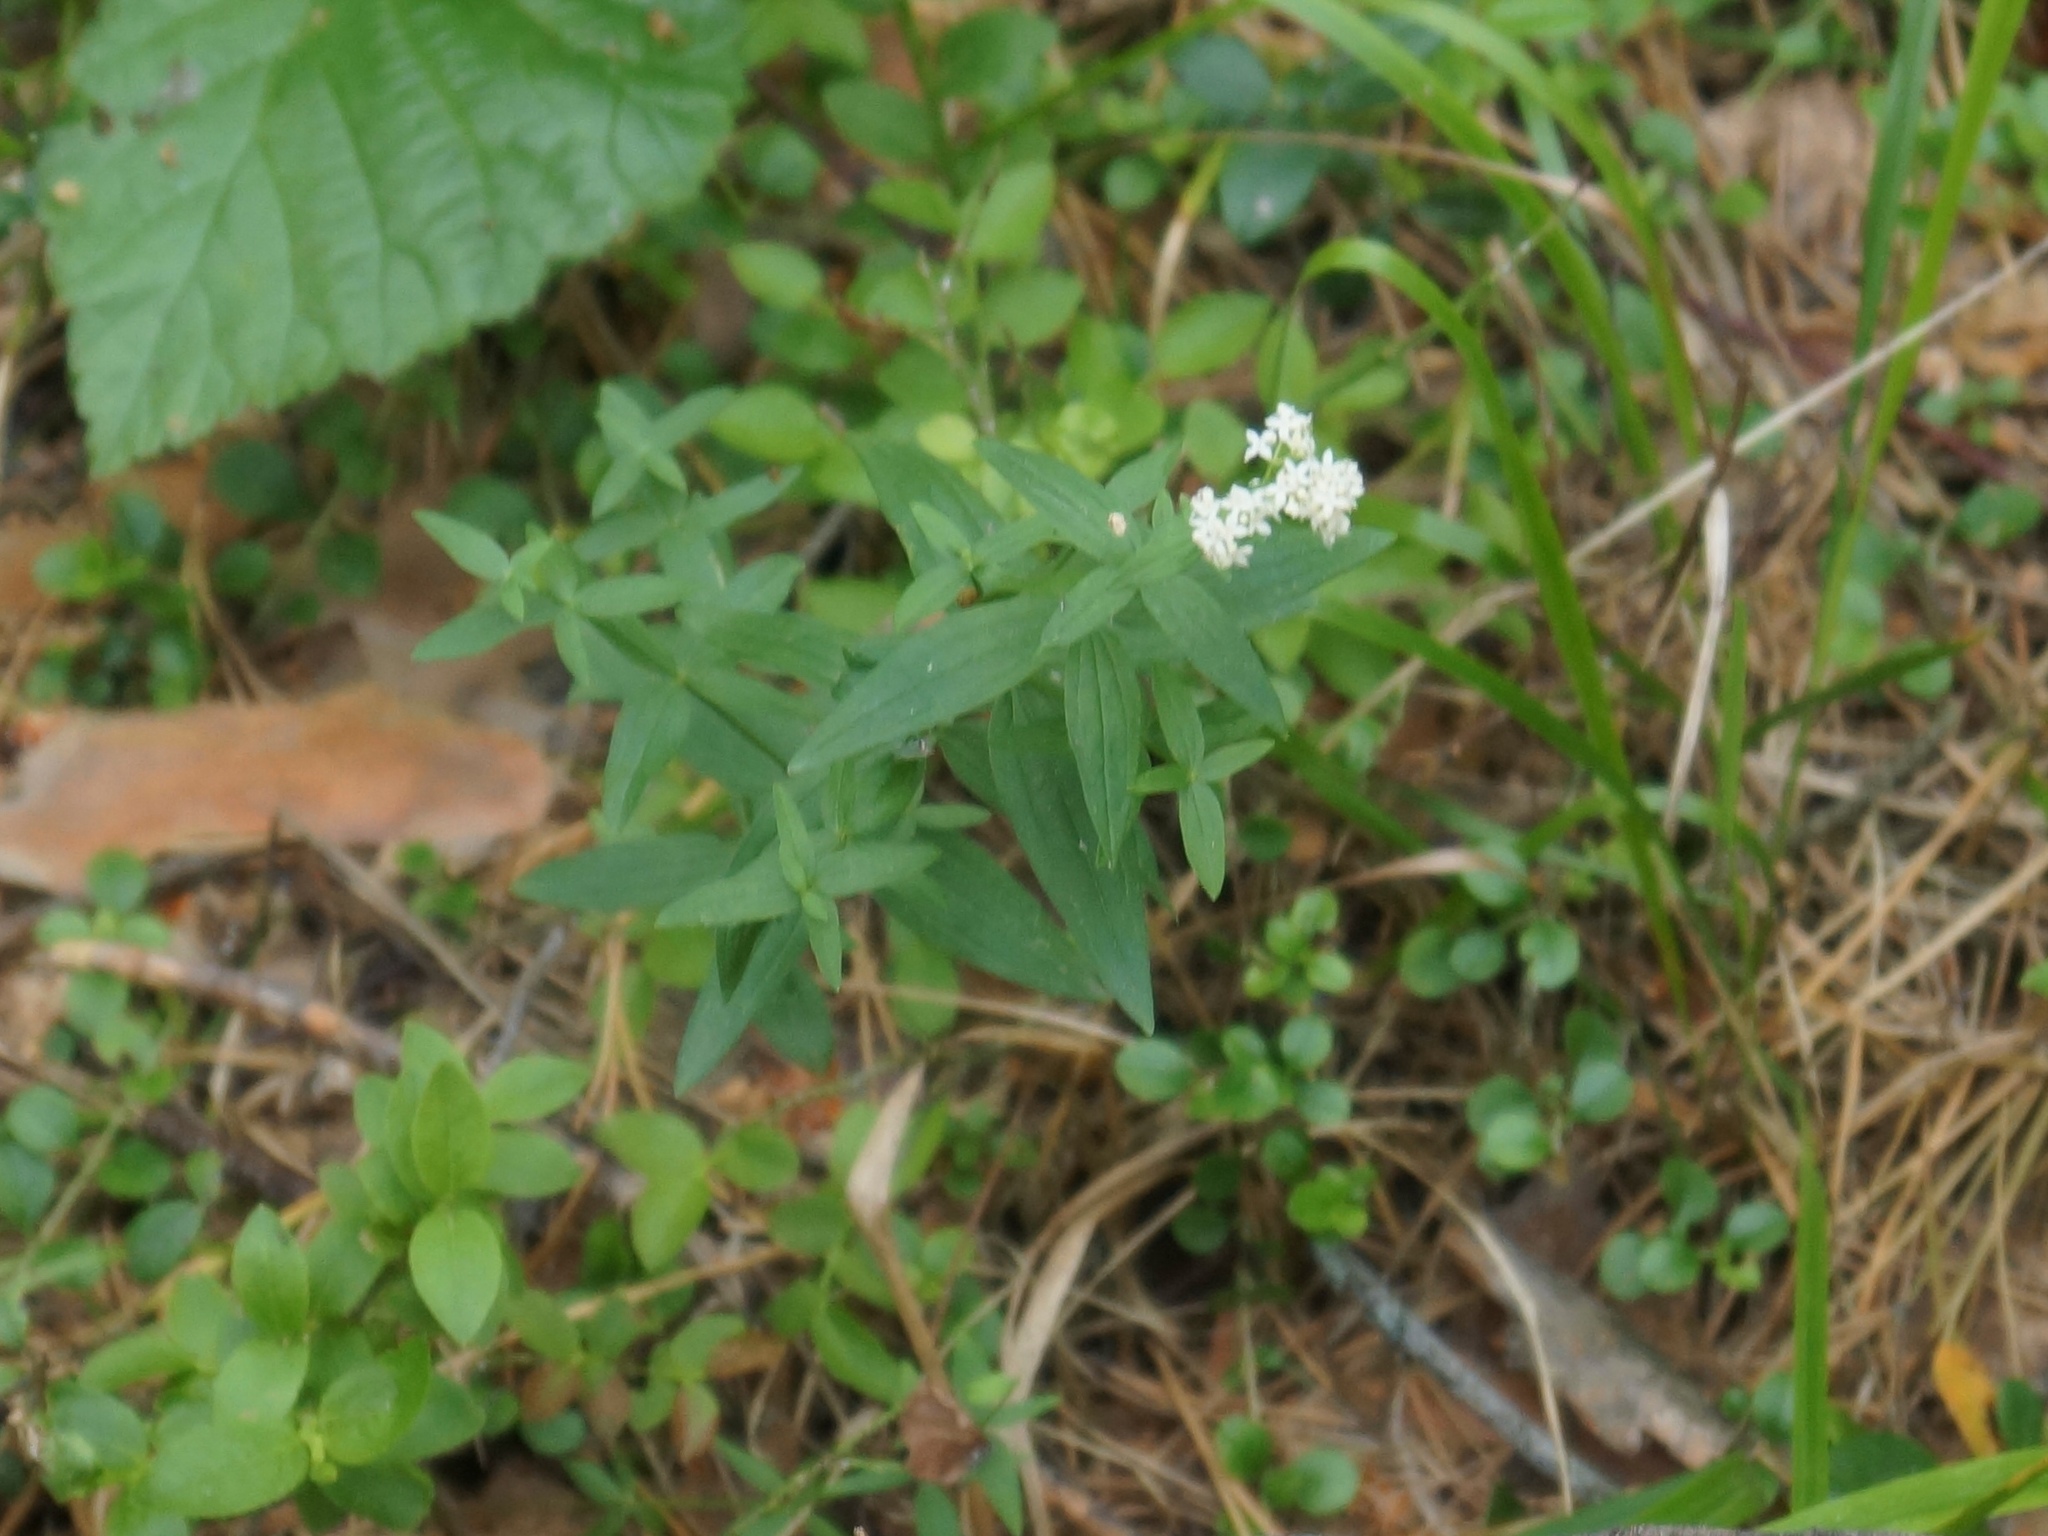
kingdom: Plantae
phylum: Tracheophyta
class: Magnoliopsida
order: Gentianales
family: Rubiaceae
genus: Galium
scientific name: Galium boreale
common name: Northern bedstraw
